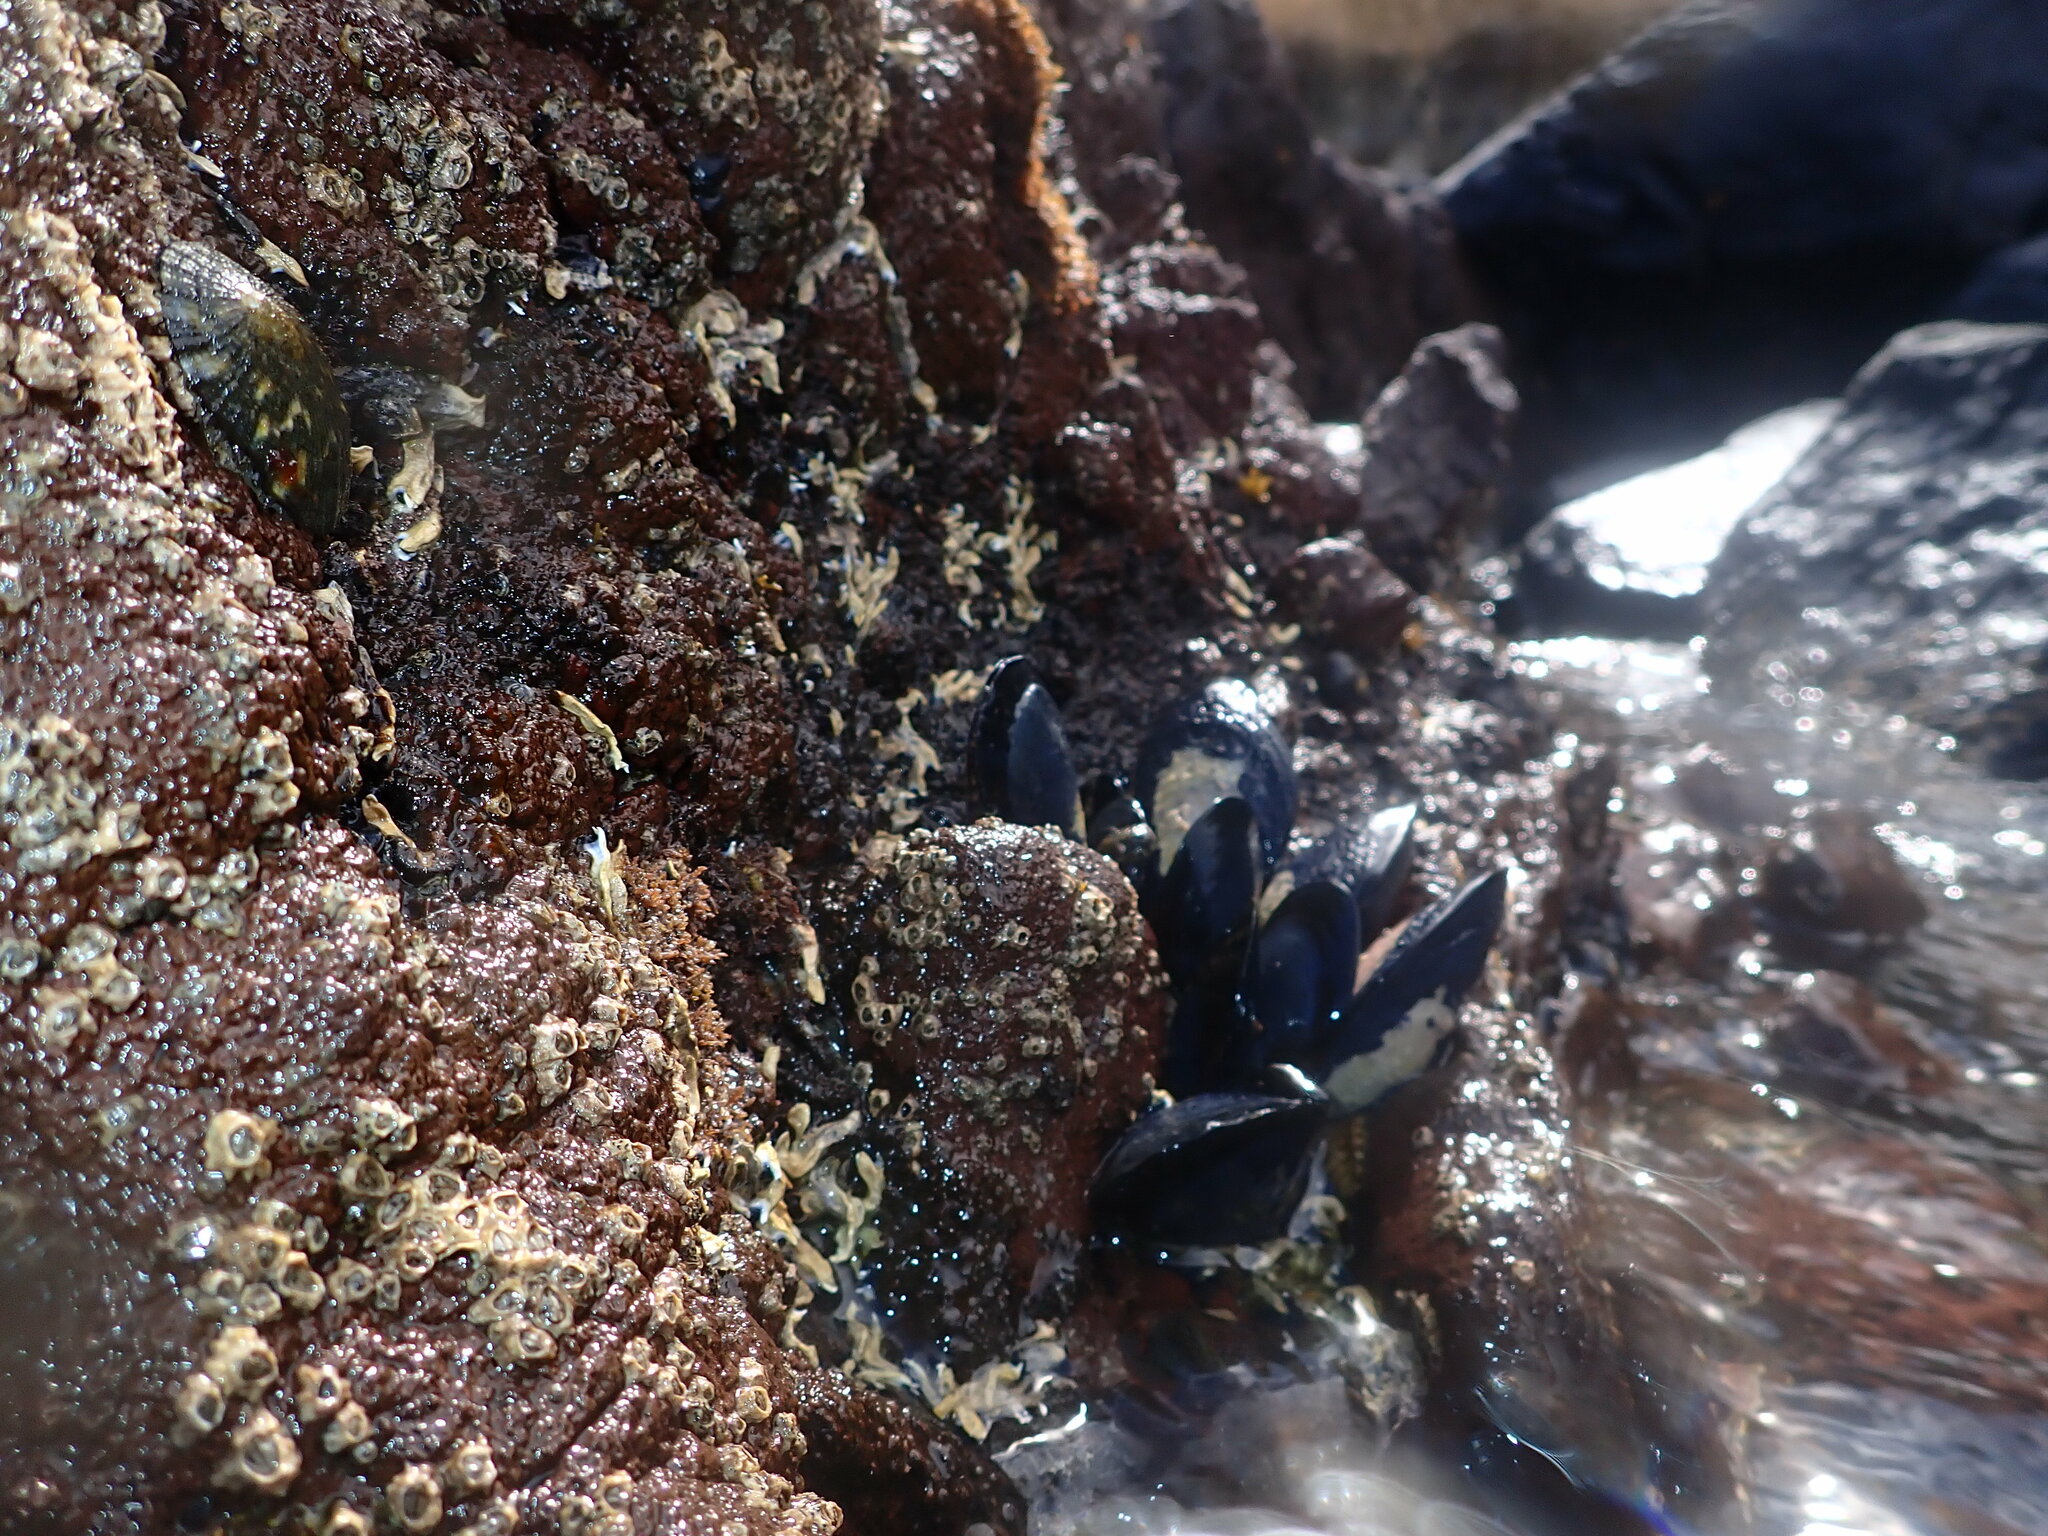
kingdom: Animalia
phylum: Mollusca
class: Bivalvia
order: Mytilida
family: Mytilidae
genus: Mytilus
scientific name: Mytilus planulatus
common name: Australian mussel
